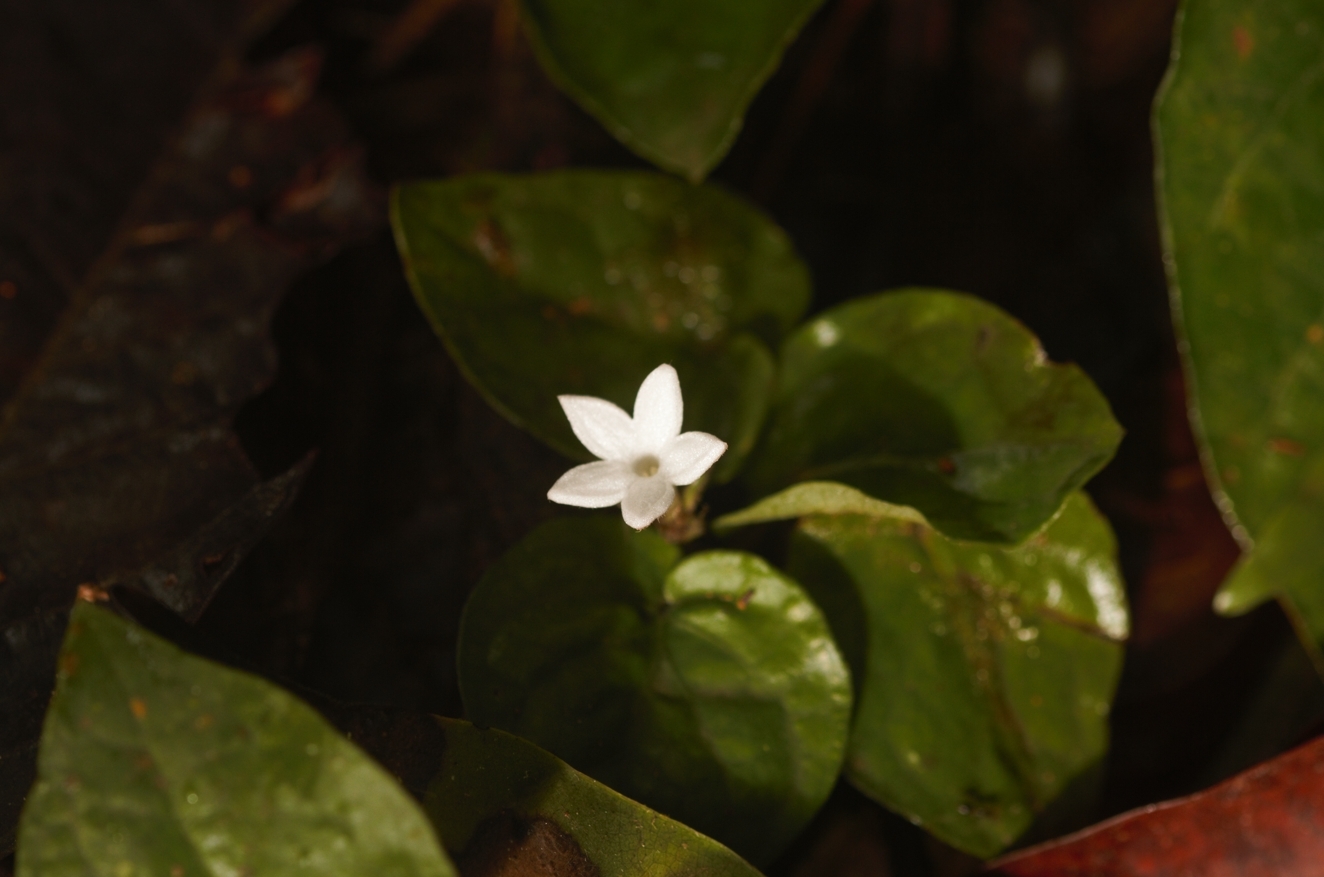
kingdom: Plantae
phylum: Tracheophyta
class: Magnoliopsida
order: Gentianales
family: Rubiaceae
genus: Geophila
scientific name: Geophila repens
